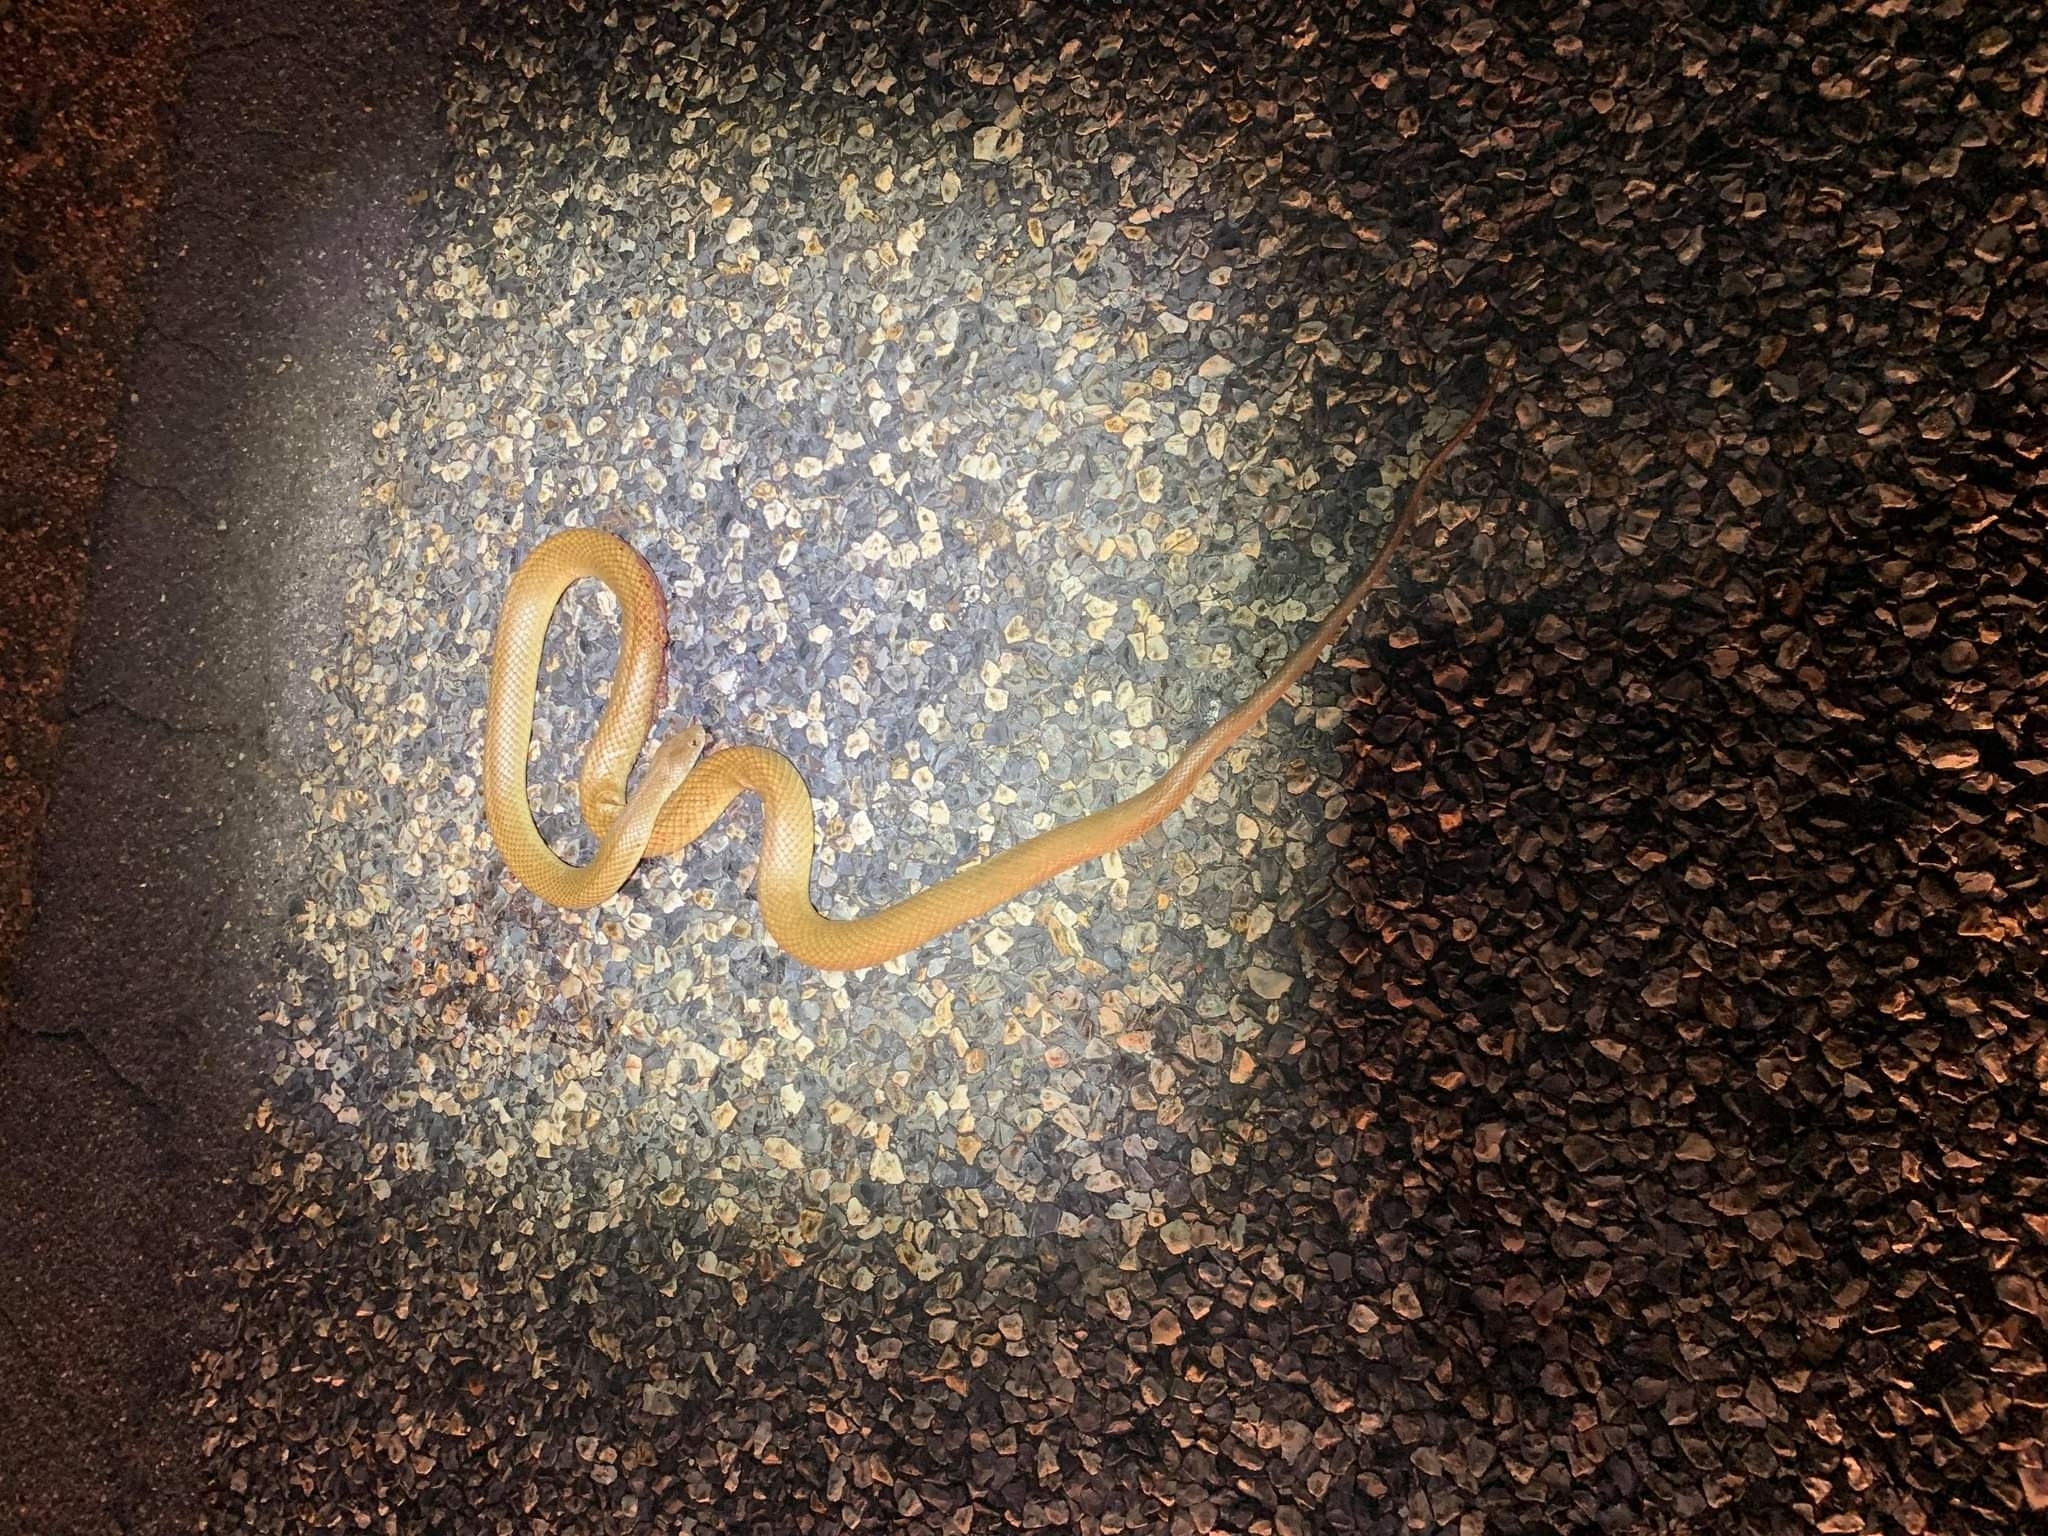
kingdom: Animalia
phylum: Chordata
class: Squamata
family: Elapidae
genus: Pseudechis
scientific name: Pseudechis weigeli
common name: Pygmy mulga snake
